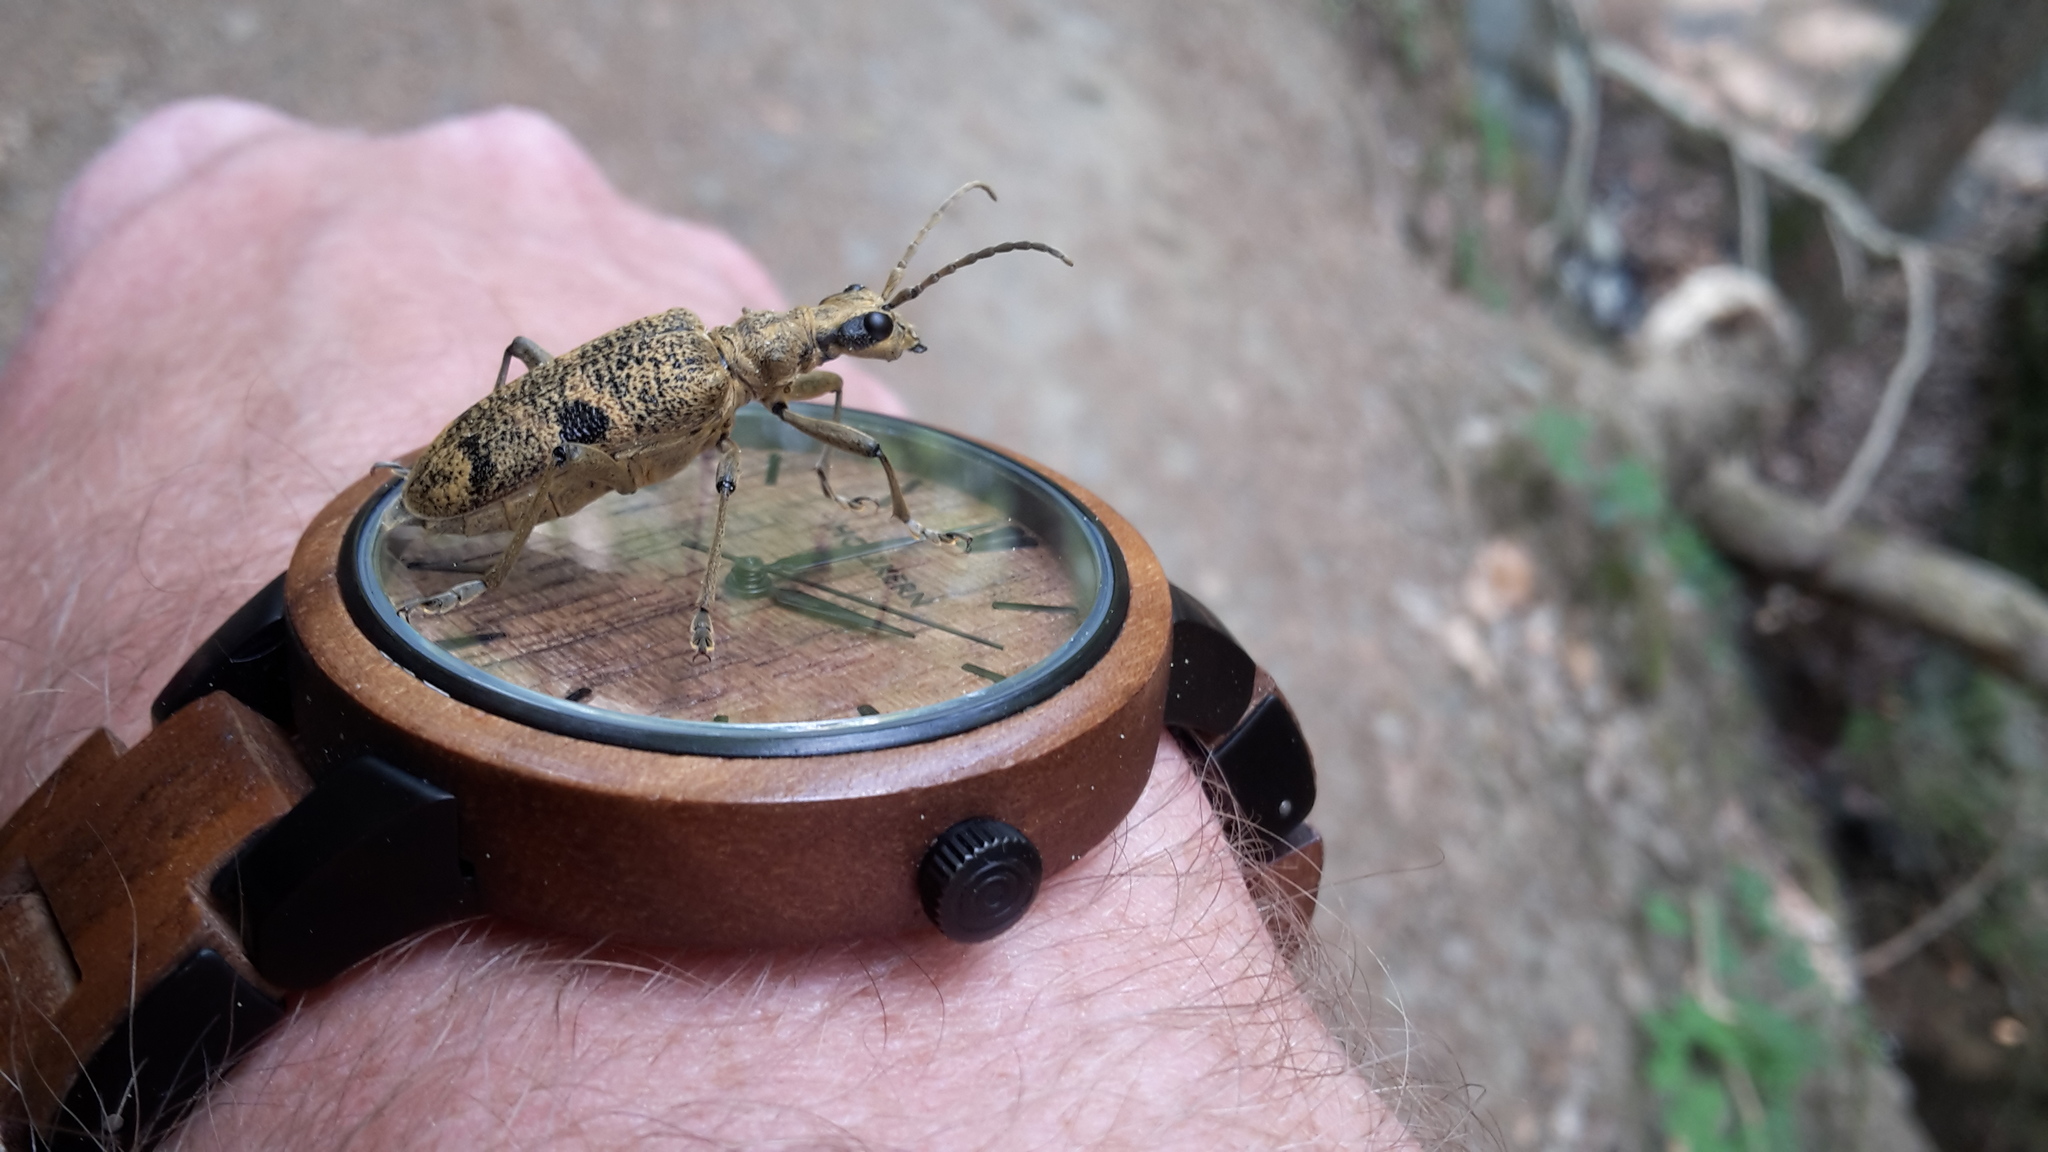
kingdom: Animalia
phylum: Arthropoda
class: Insecta
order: Coleoptera
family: Cerambycidae
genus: Rhagium
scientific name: Rhagium mordax
